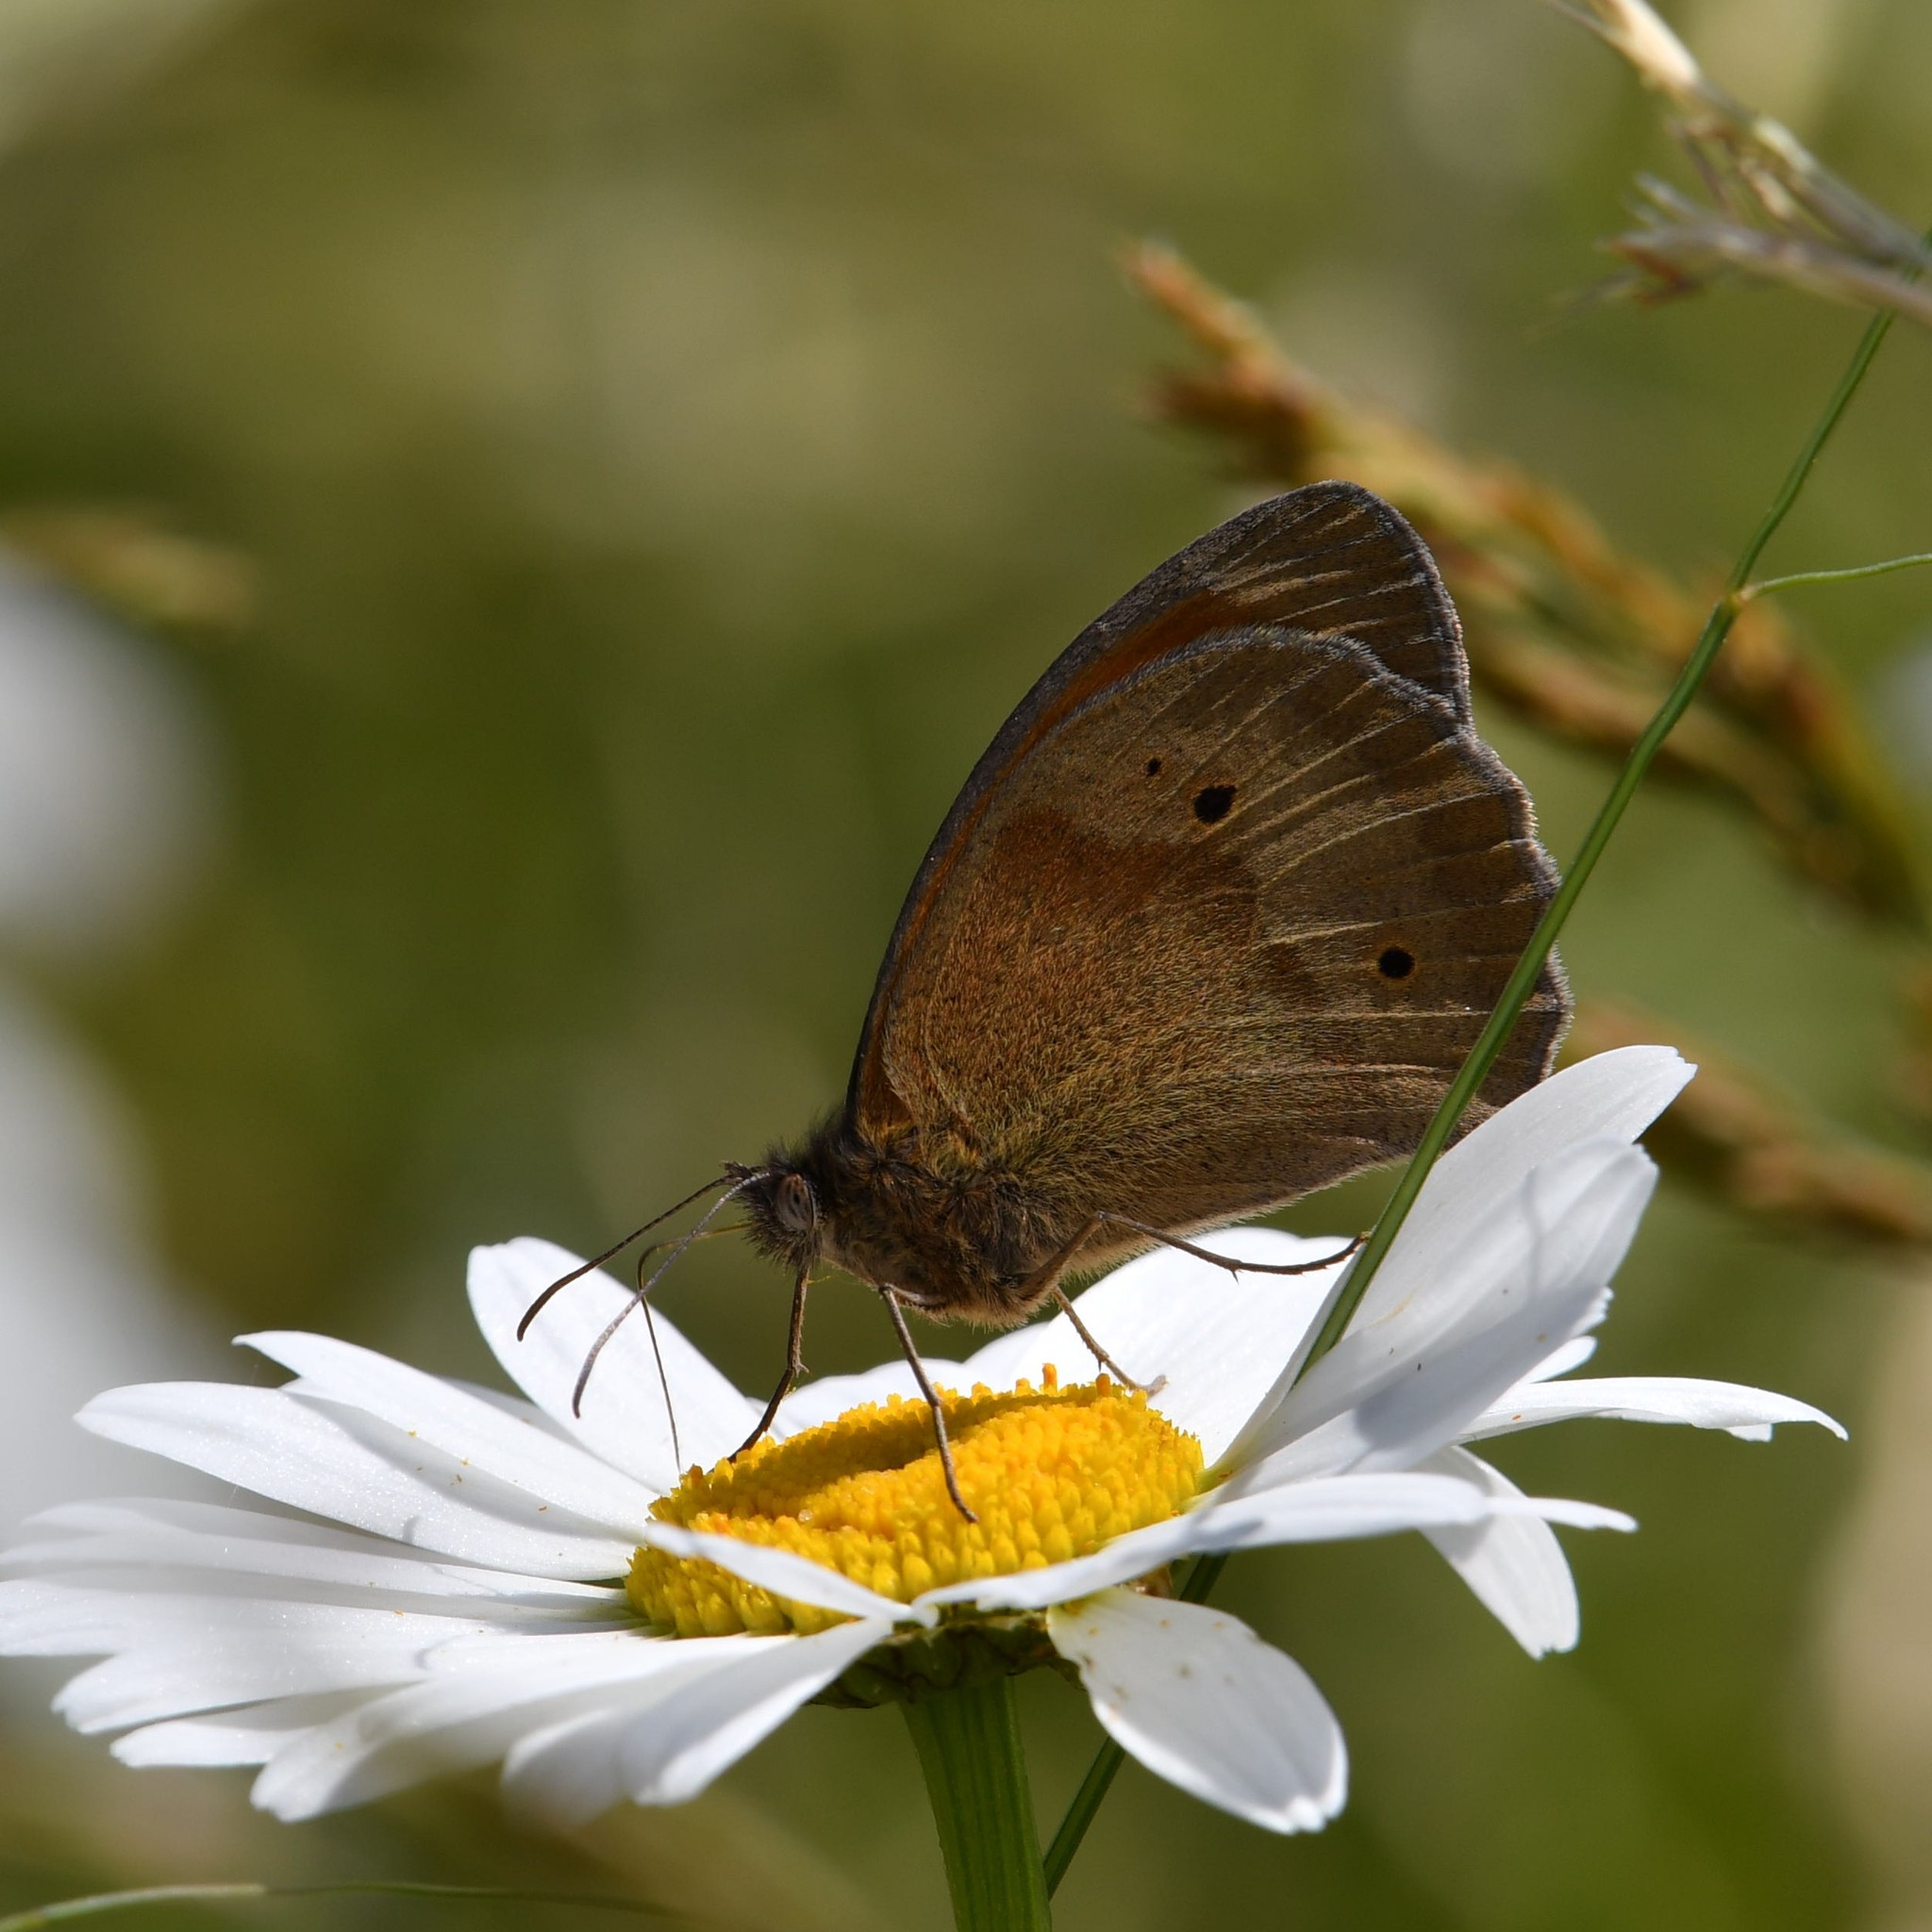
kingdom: Animalia
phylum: Arthropoda
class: Insecta
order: Lepidoptera
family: Nymphalidae
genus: Maniola
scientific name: Maniola jurtina
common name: Meadow brown
